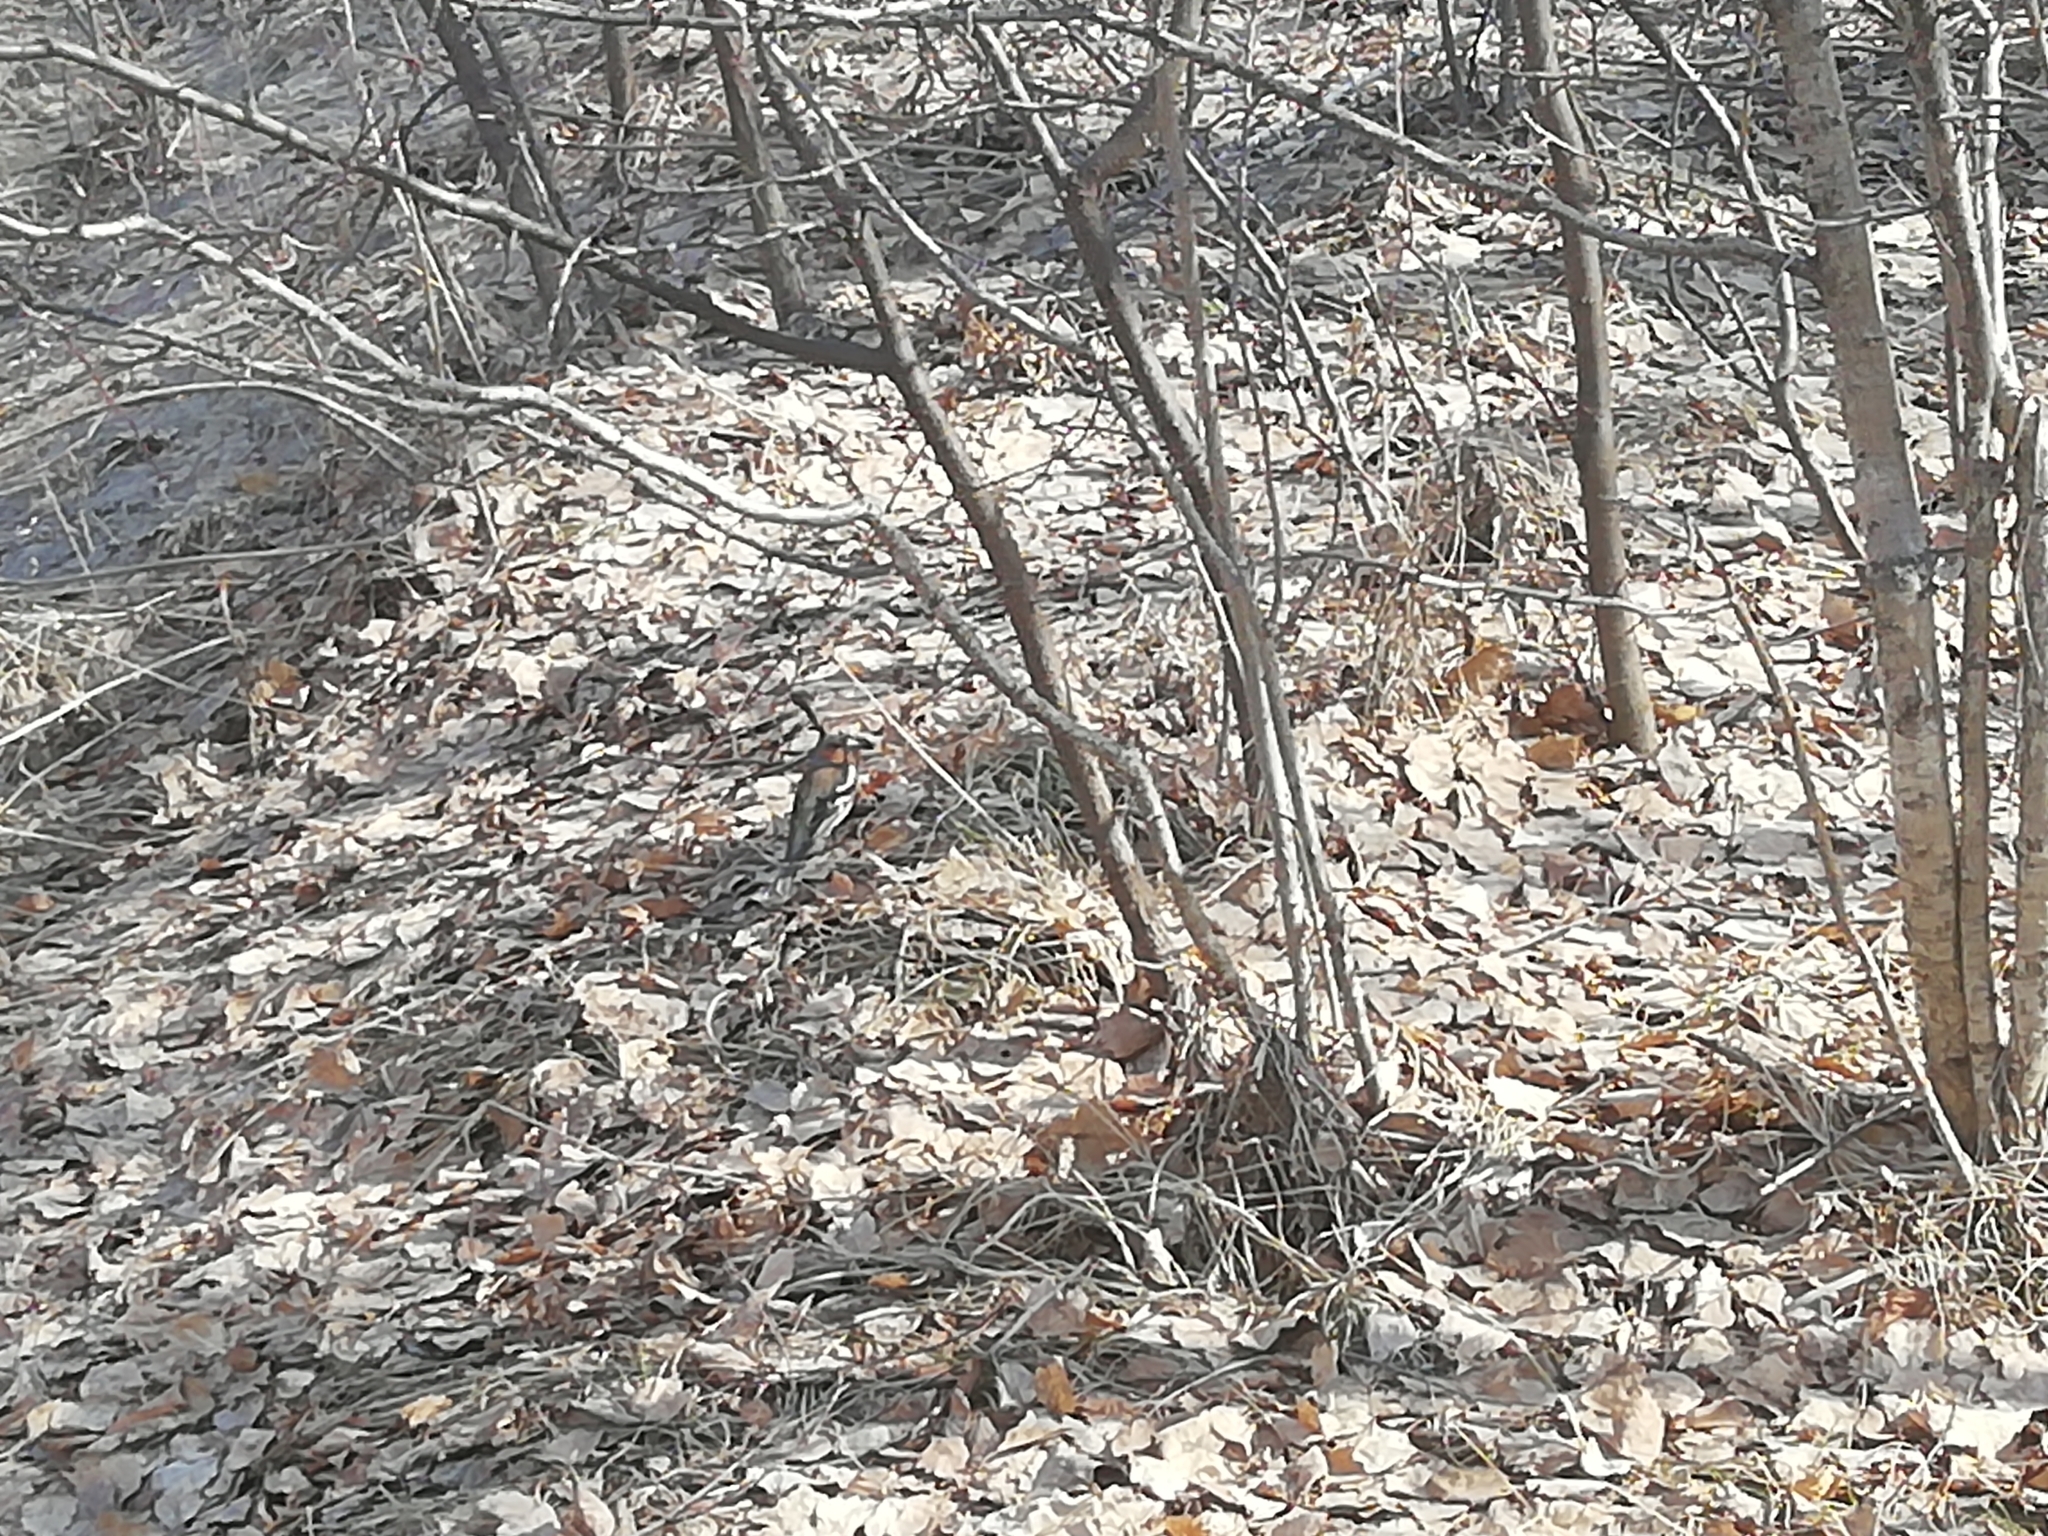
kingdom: Animalia
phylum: Chordata
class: Aves
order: Passeriformes
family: Fringillidae
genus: Fringilla
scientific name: Fringilla coelebs
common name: Common chaffinch
